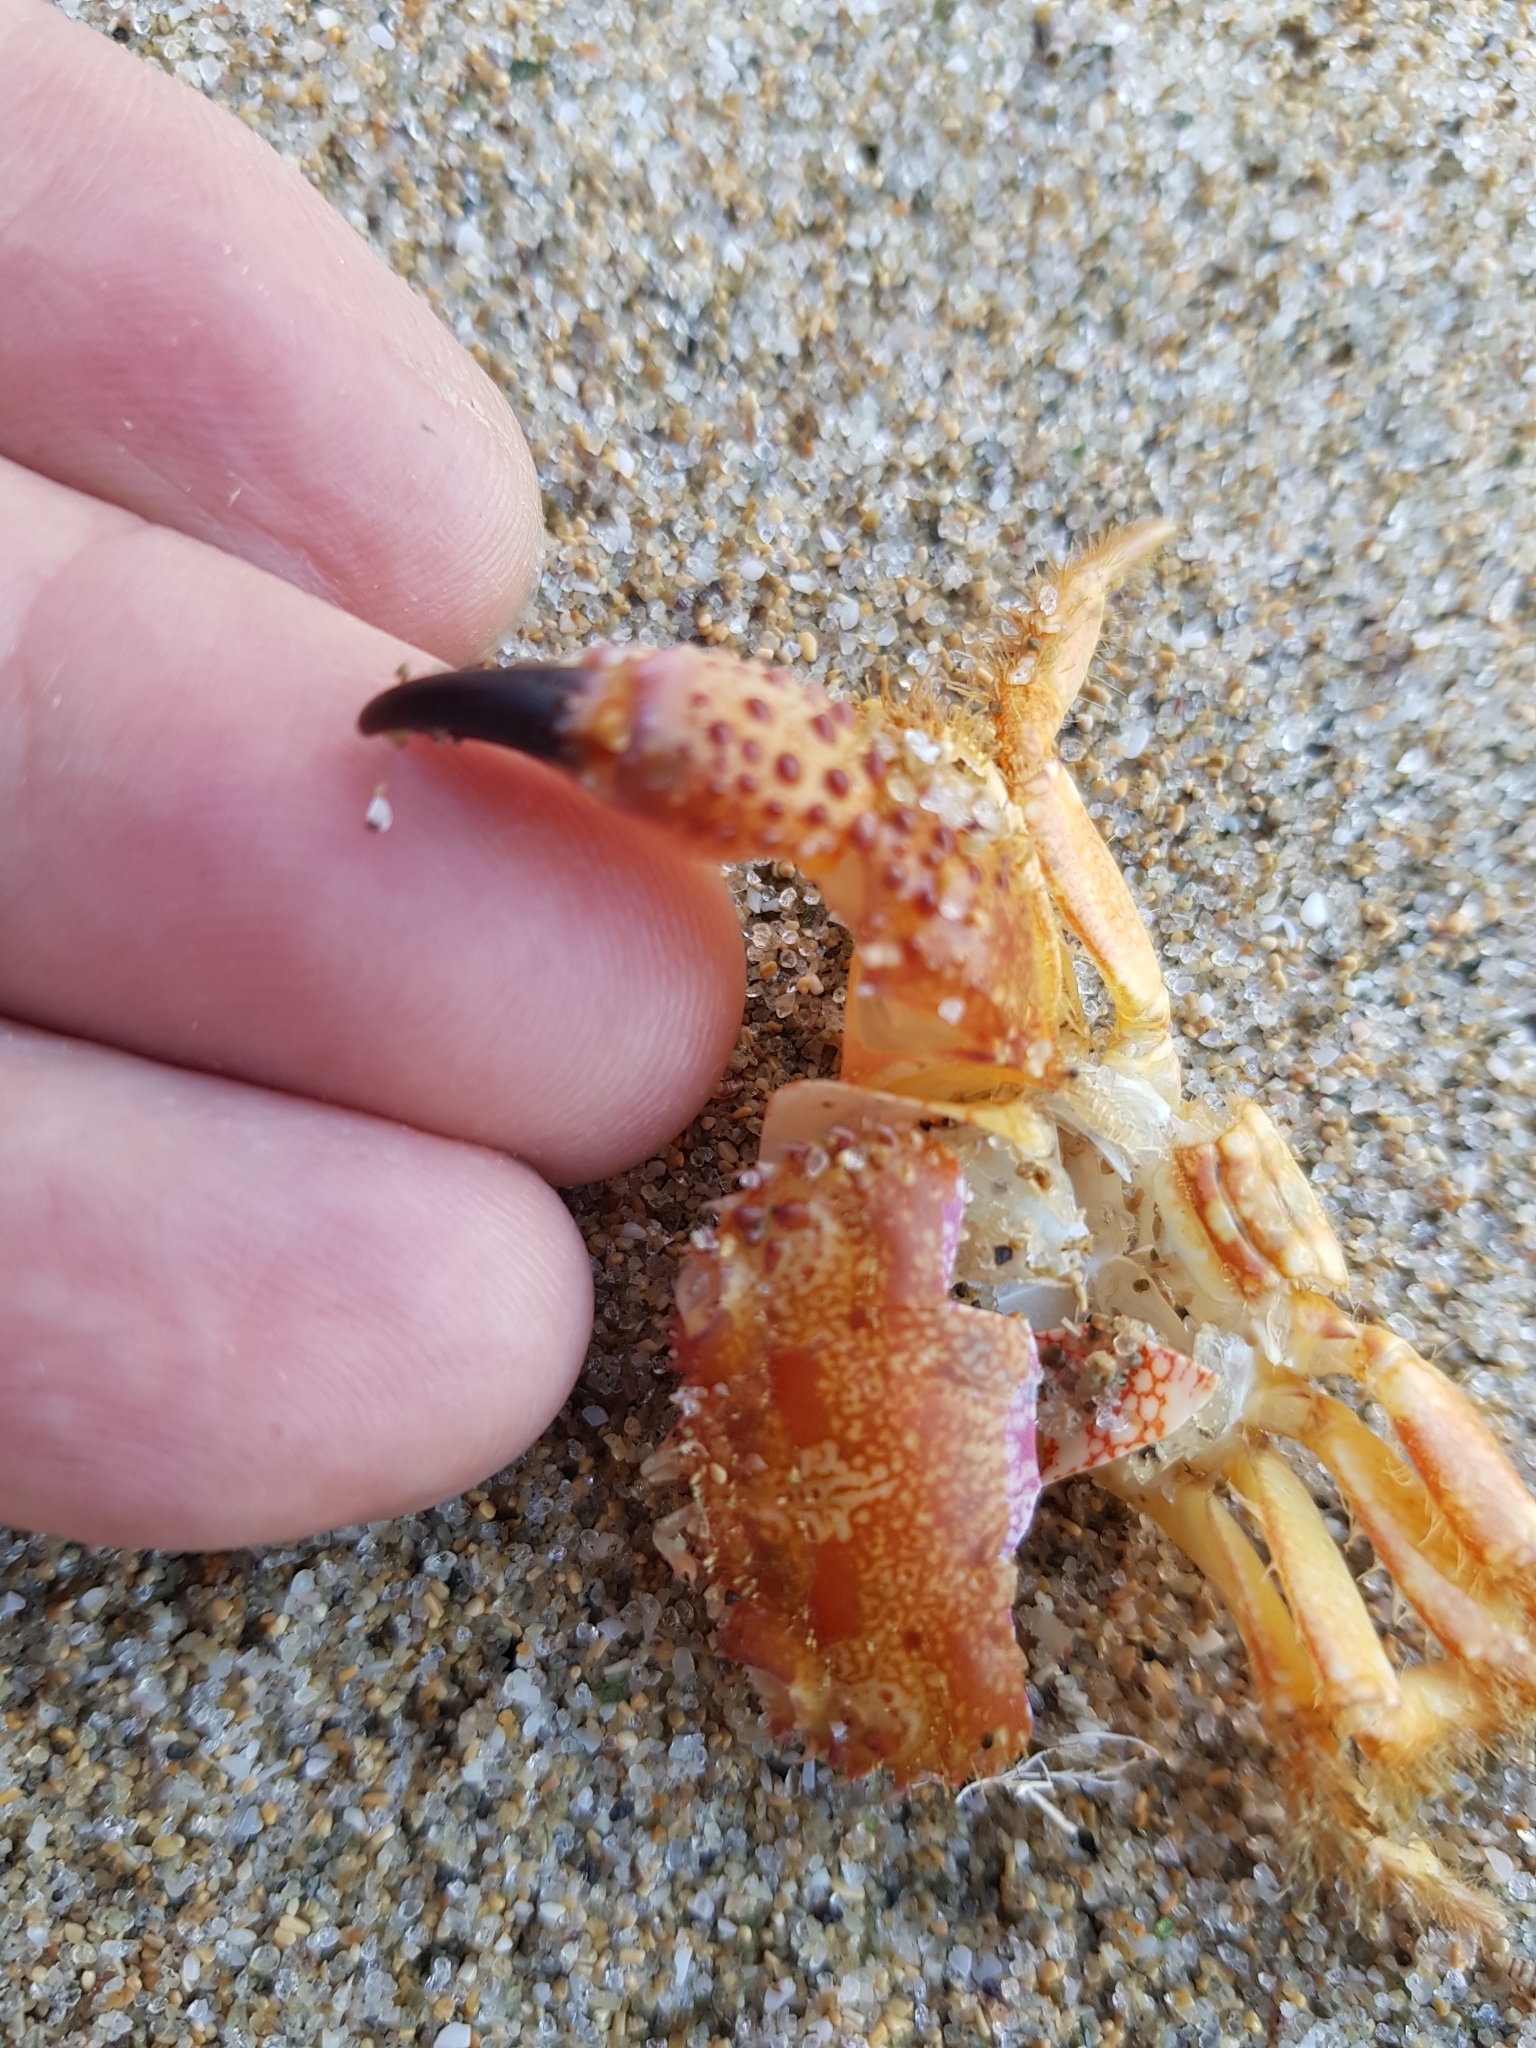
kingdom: Animalia
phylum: Arthropoda
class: Malacostraca
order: Decapoda
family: Eriphiidae
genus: Eriphia
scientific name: Eriphia verrucosa
